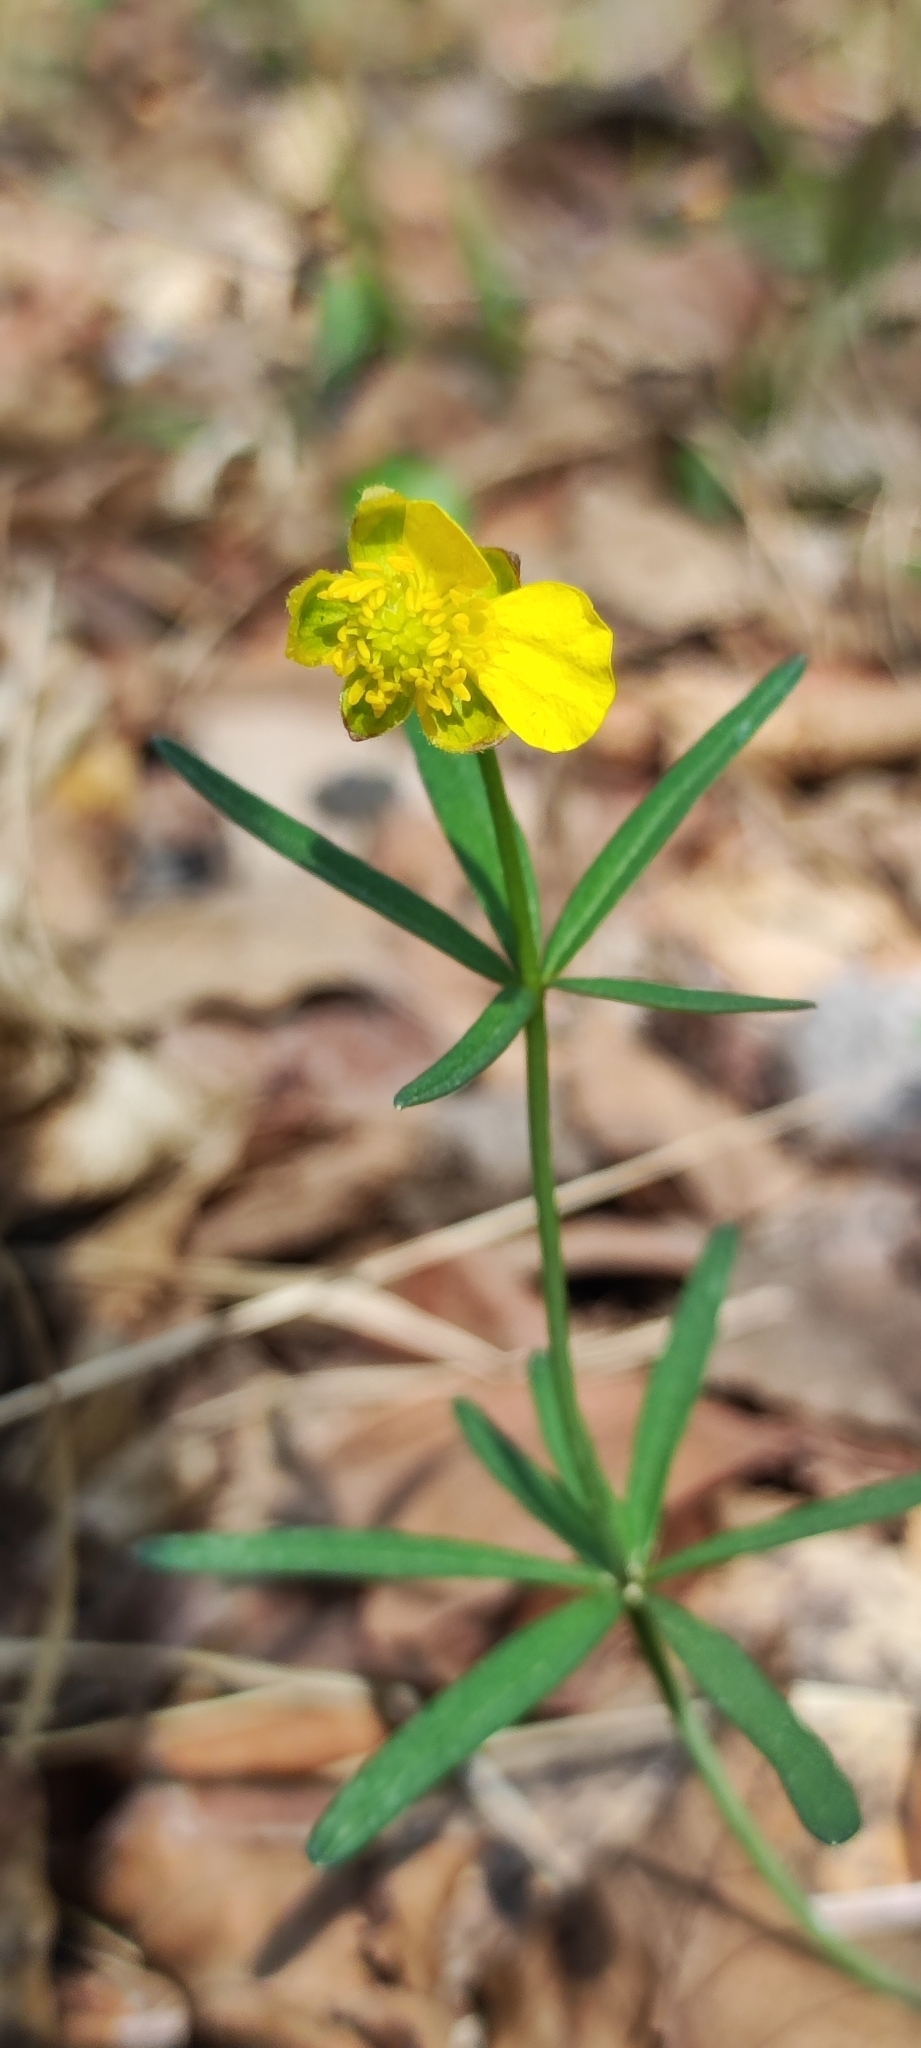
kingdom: Plantae
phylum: Tracheophyta
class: Magnoliopsida
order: Ranunculales
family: Ranunculaceae
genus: Ranunculus
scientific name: Ranunculus auricomus
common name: Goldilocks buttercup
